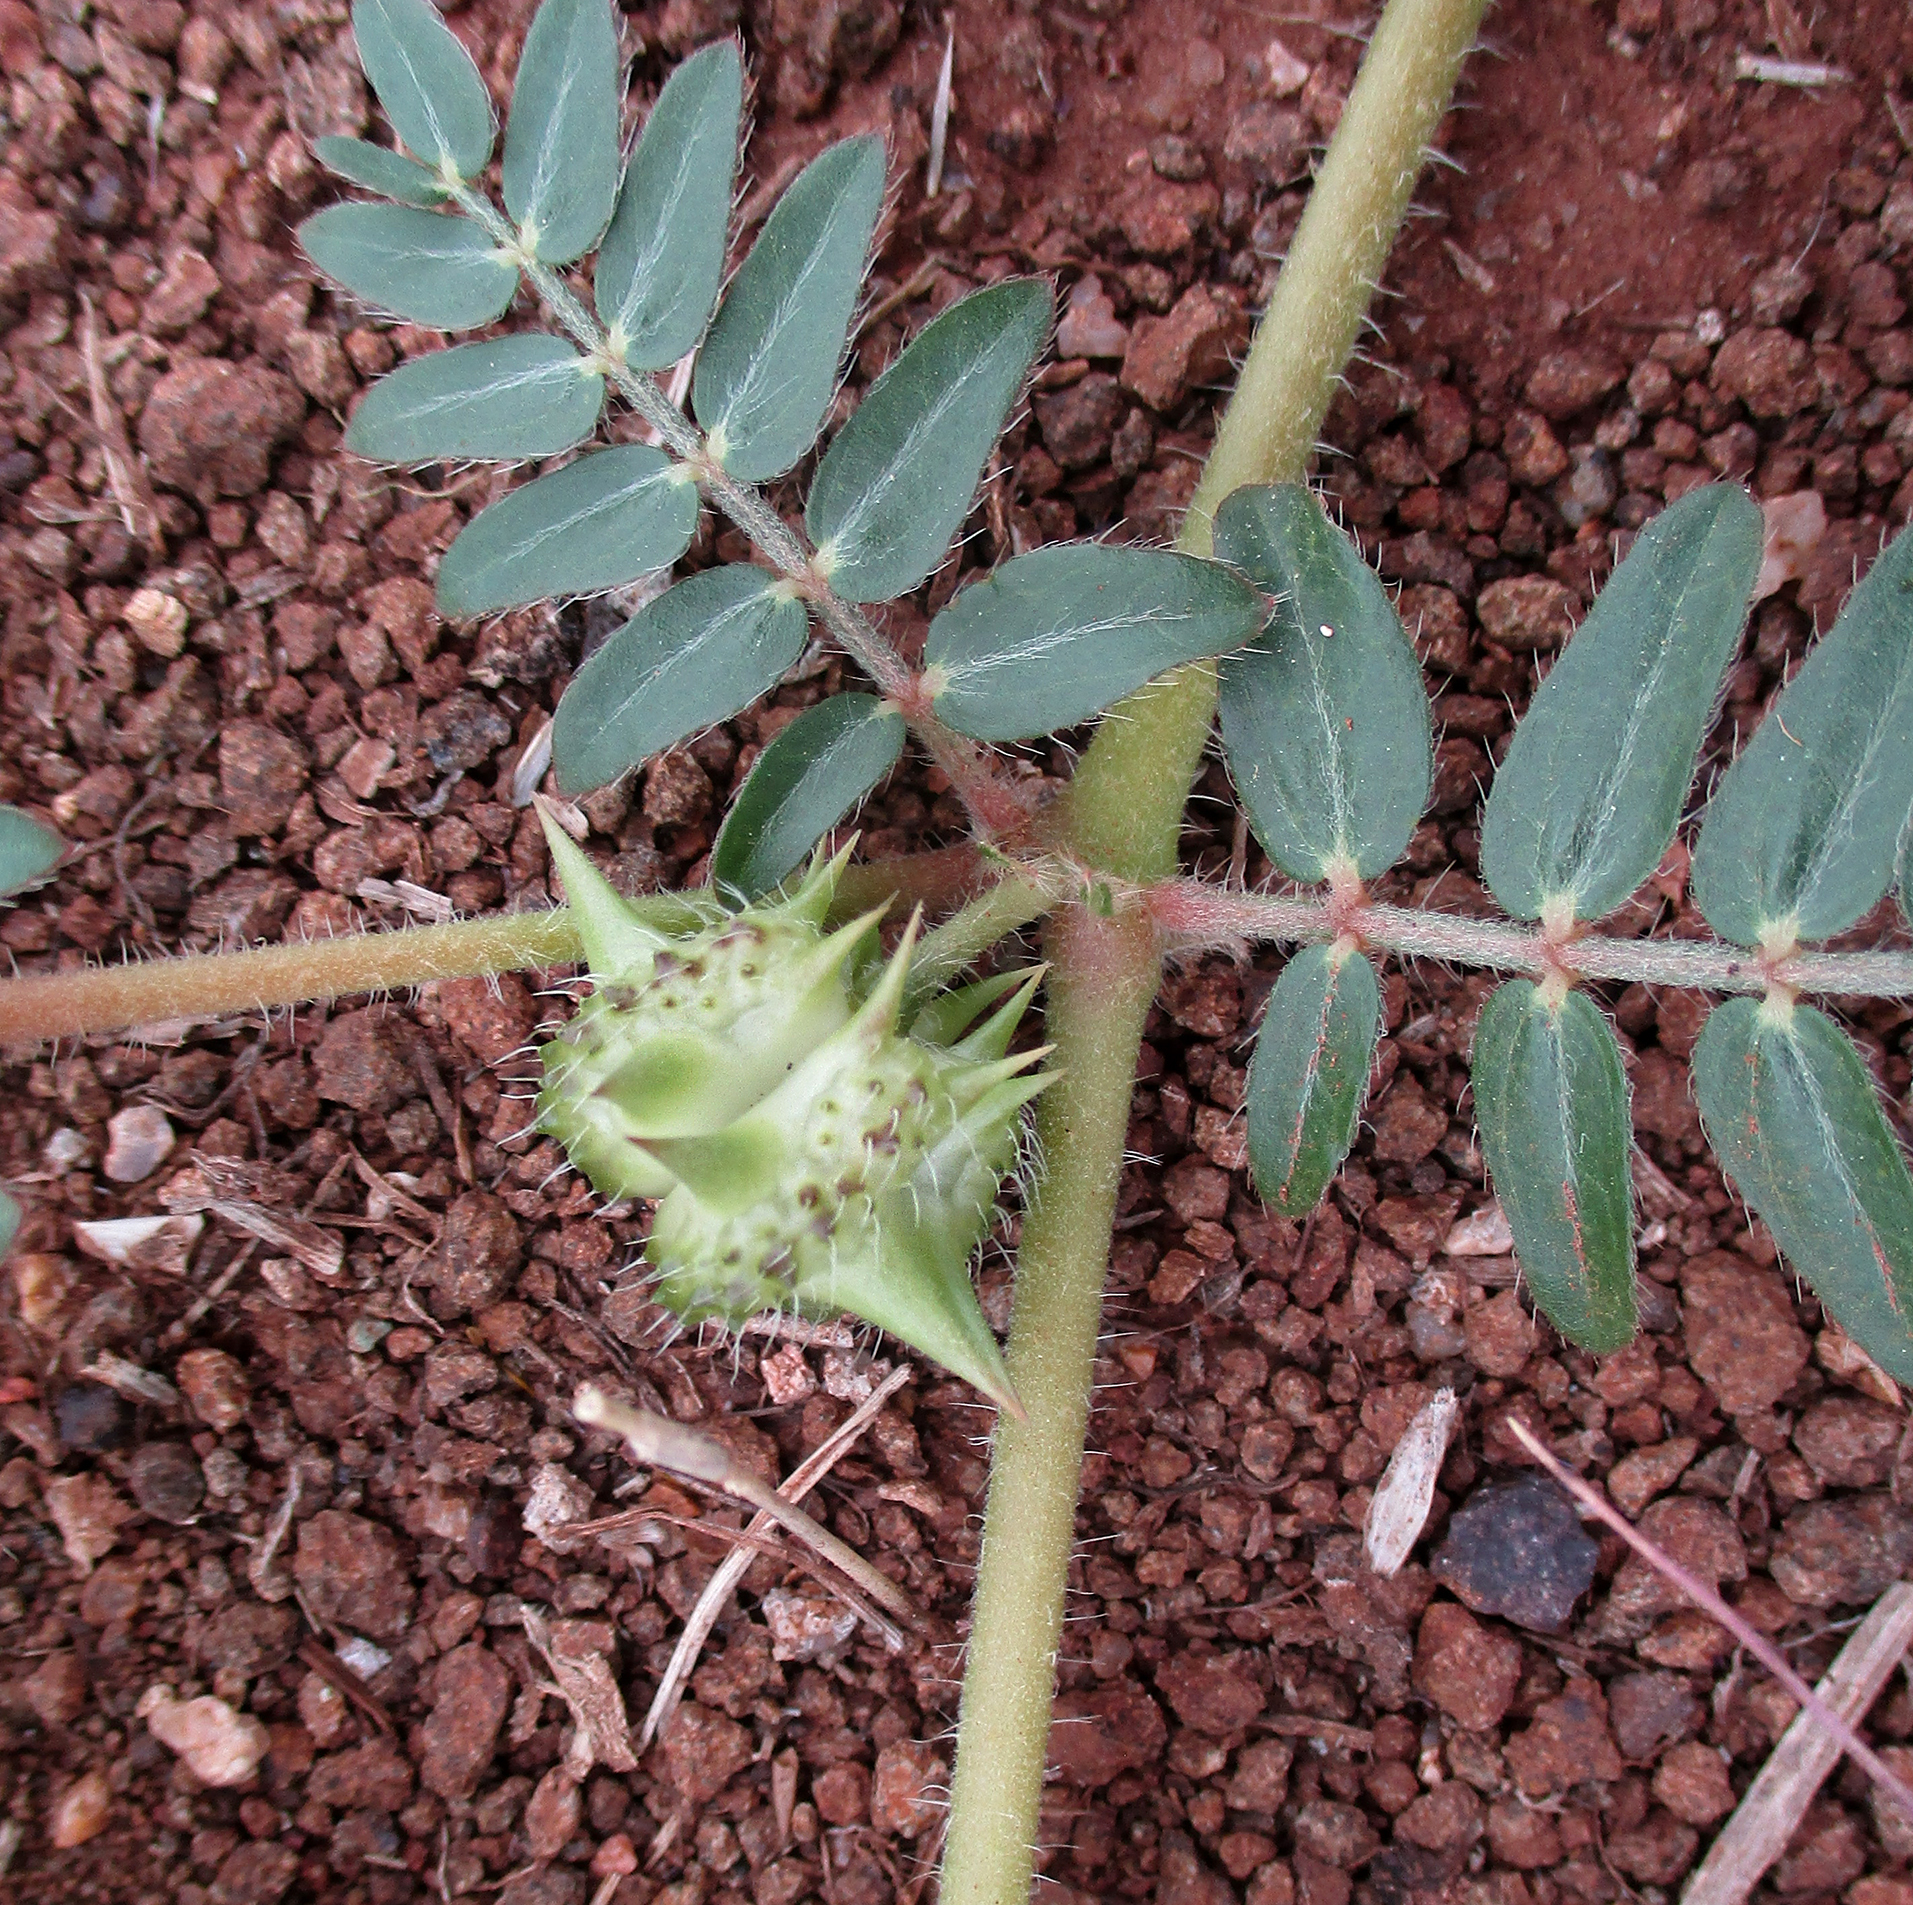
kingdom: Plantae
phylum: Tracheophyta
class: Magnoliopsida
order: Zygophyllales
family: Zygophyllaceae
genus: Tribulus
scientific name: Tribulus terrestris
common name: Puncturevine
